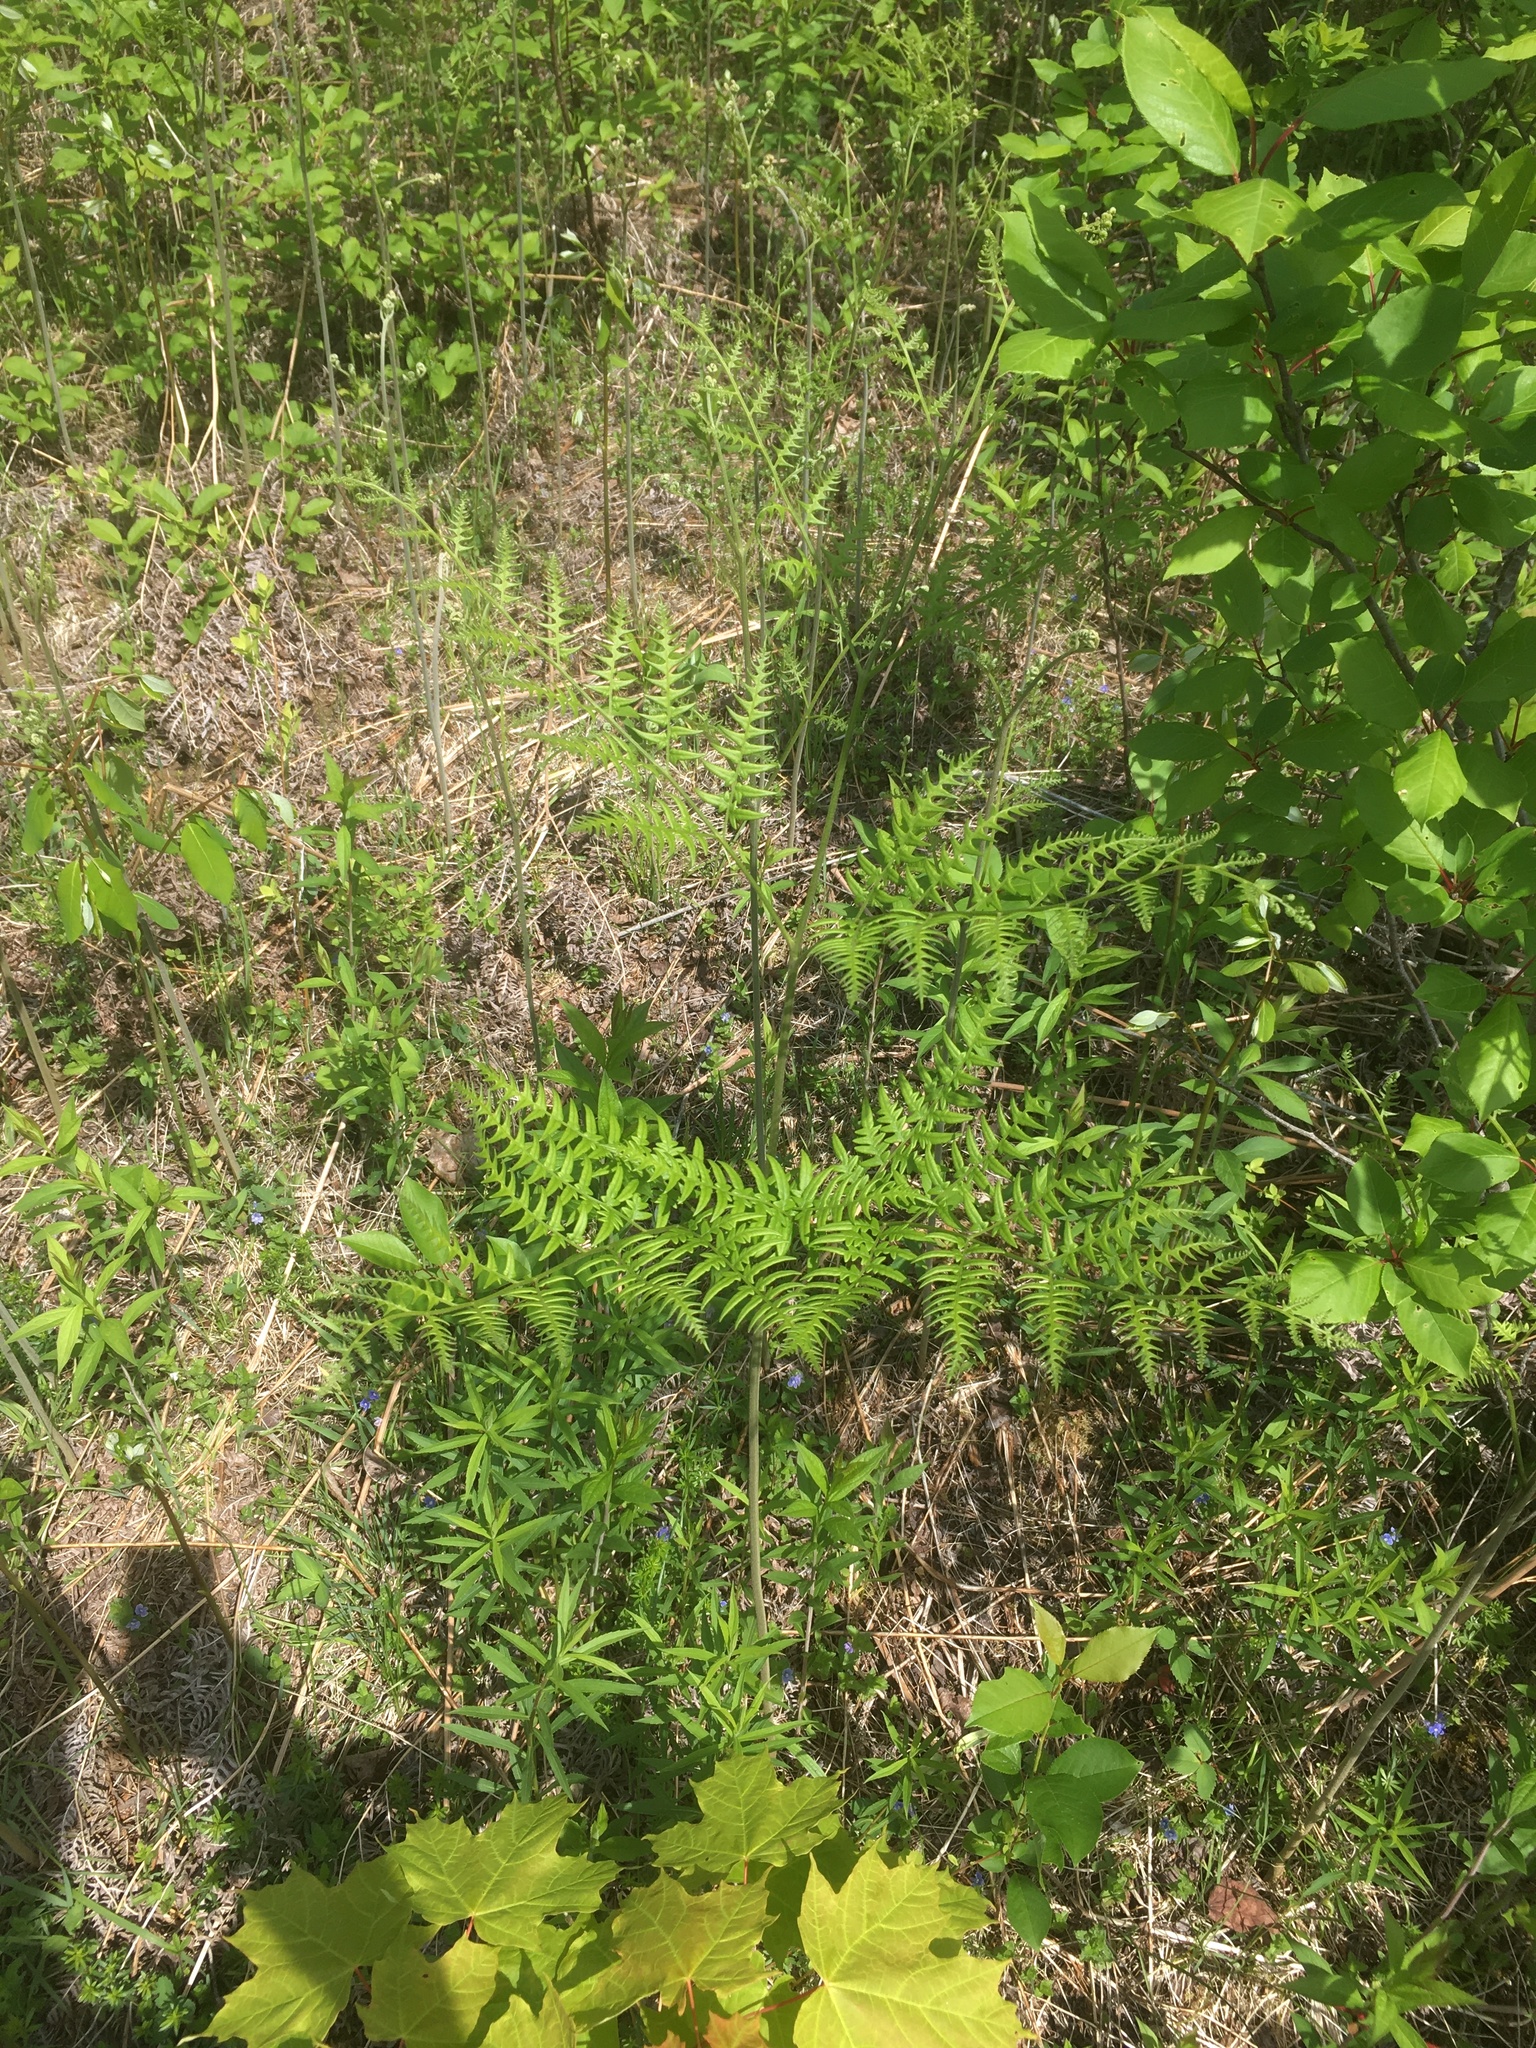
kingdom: Plantae
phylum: Tracheophyta
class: Polypodiopsida
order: Polypodiales
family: Dennstaedtiaceae
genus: Pteridium
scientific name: Pteridium aquilinum
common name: Bracken
